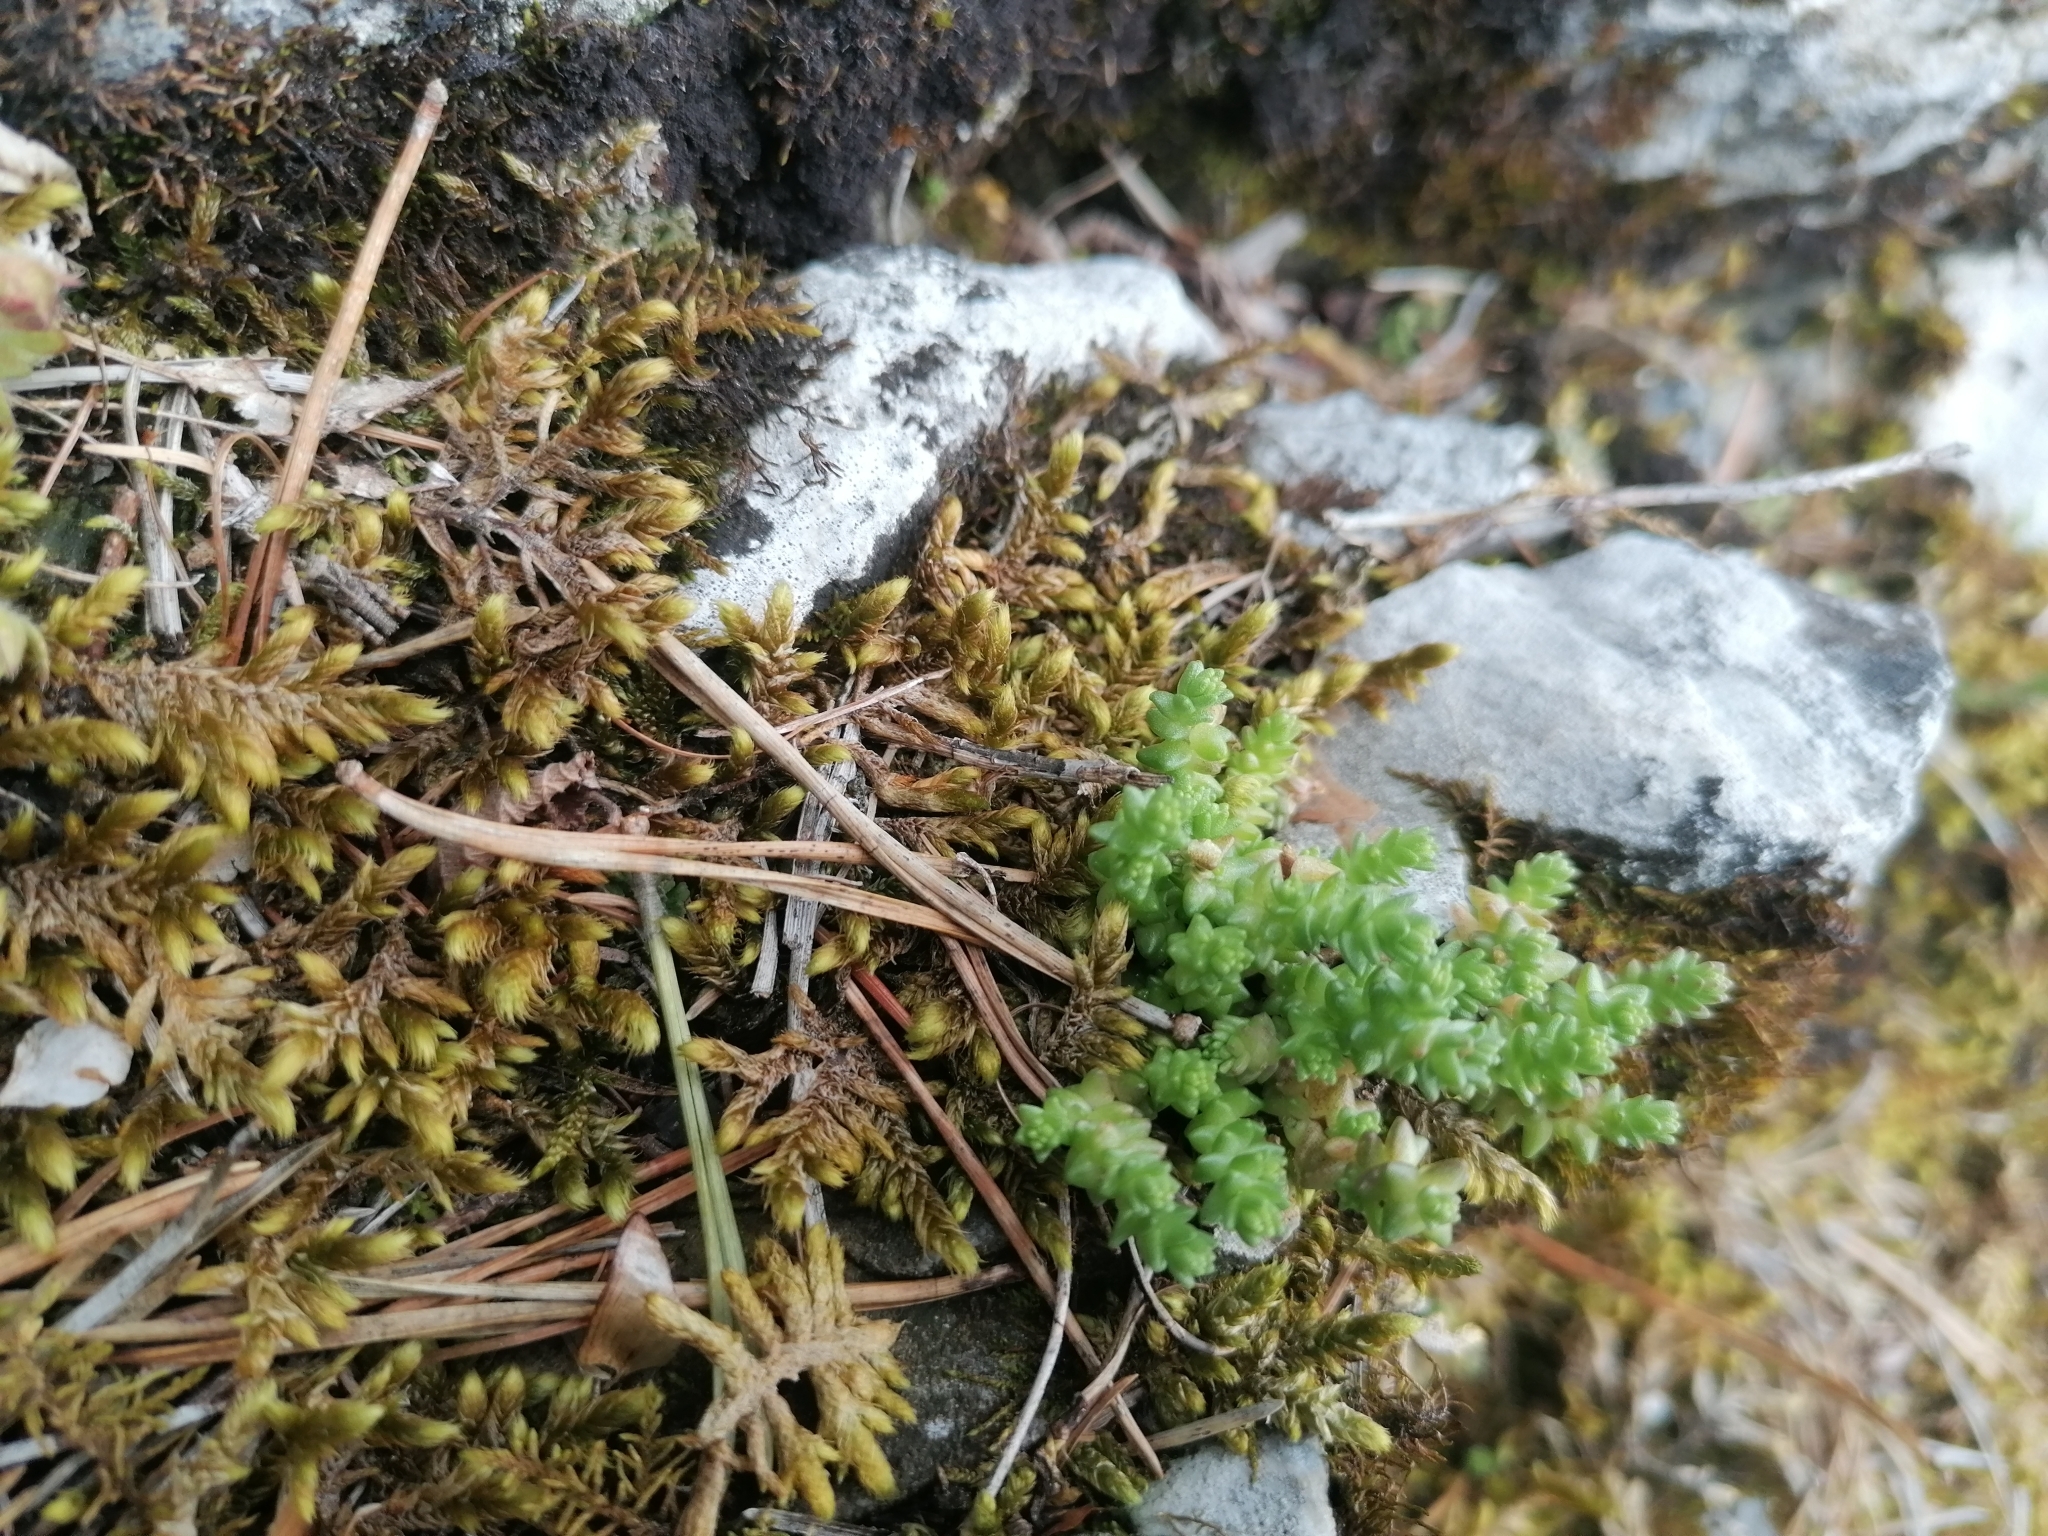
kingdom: Plantae
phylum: Tracheophyta
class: Magnoliopsida
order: Saxifragales
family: Crassulaceae
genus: Sedum
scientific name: Sedum acre
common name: Biting stonecrop
